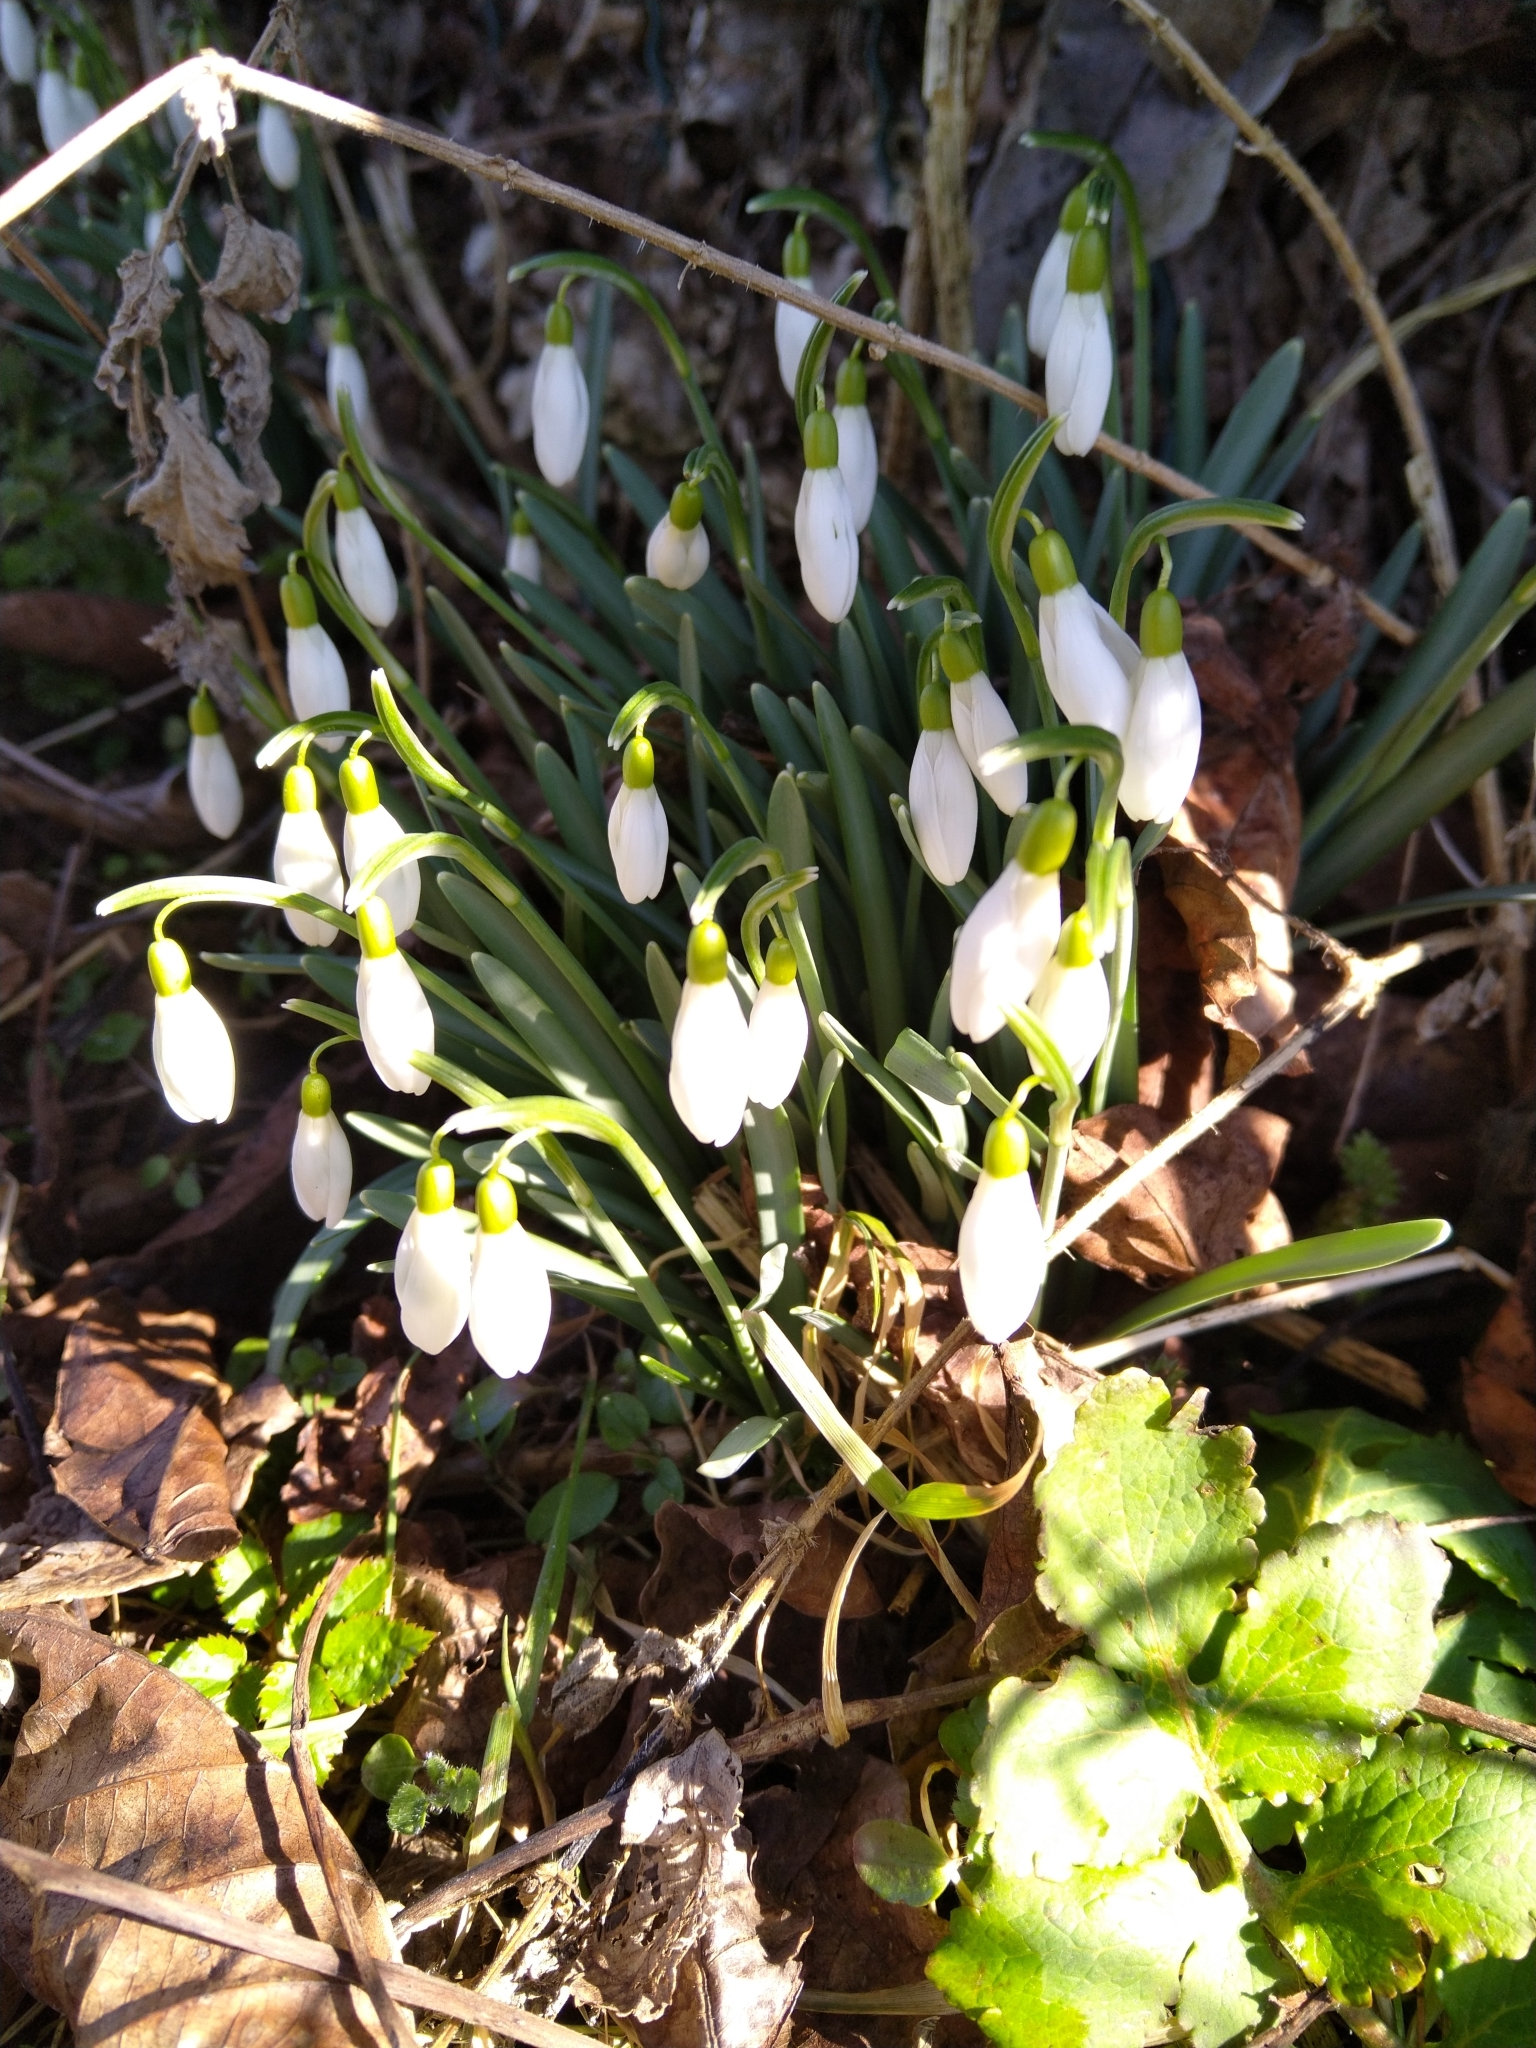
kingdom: Plantae
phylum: Tracheophyta
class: Liliopsida
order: Asparagales
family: Amaryllidaceae
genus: Galanthus
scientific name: Galanthus nivalis
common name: Snowdrop
